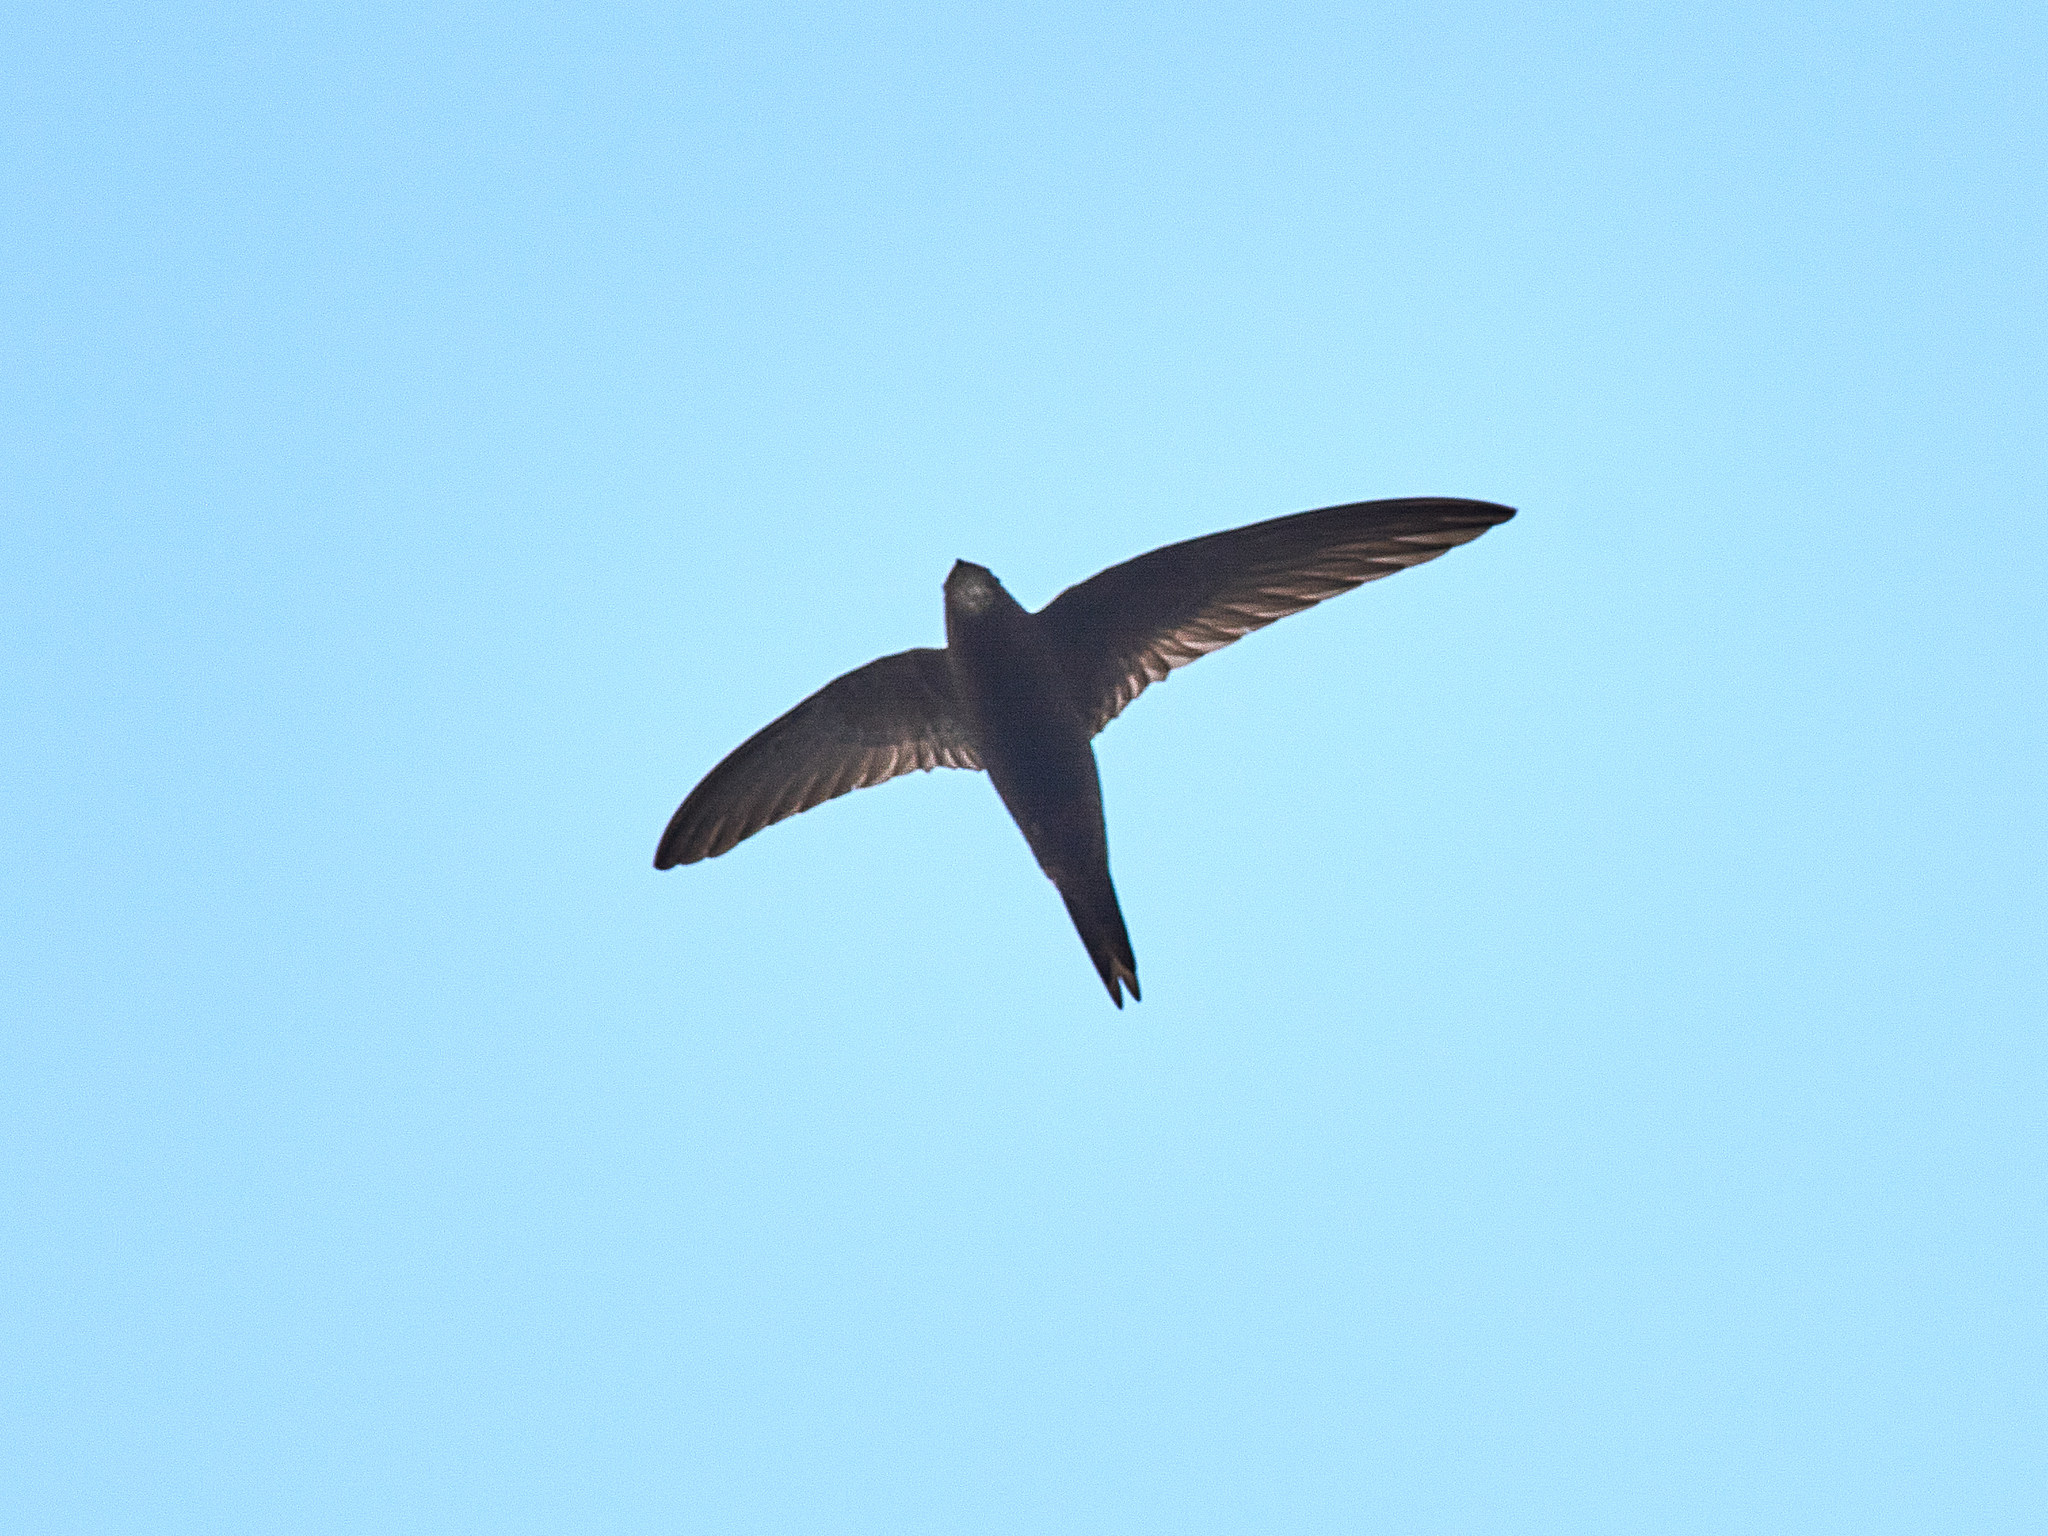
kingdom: Animalia
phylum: Chordata
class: Aves
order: Apodiformes
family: Apodidae
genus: Apus
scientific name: Apus apus
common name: Common swift
